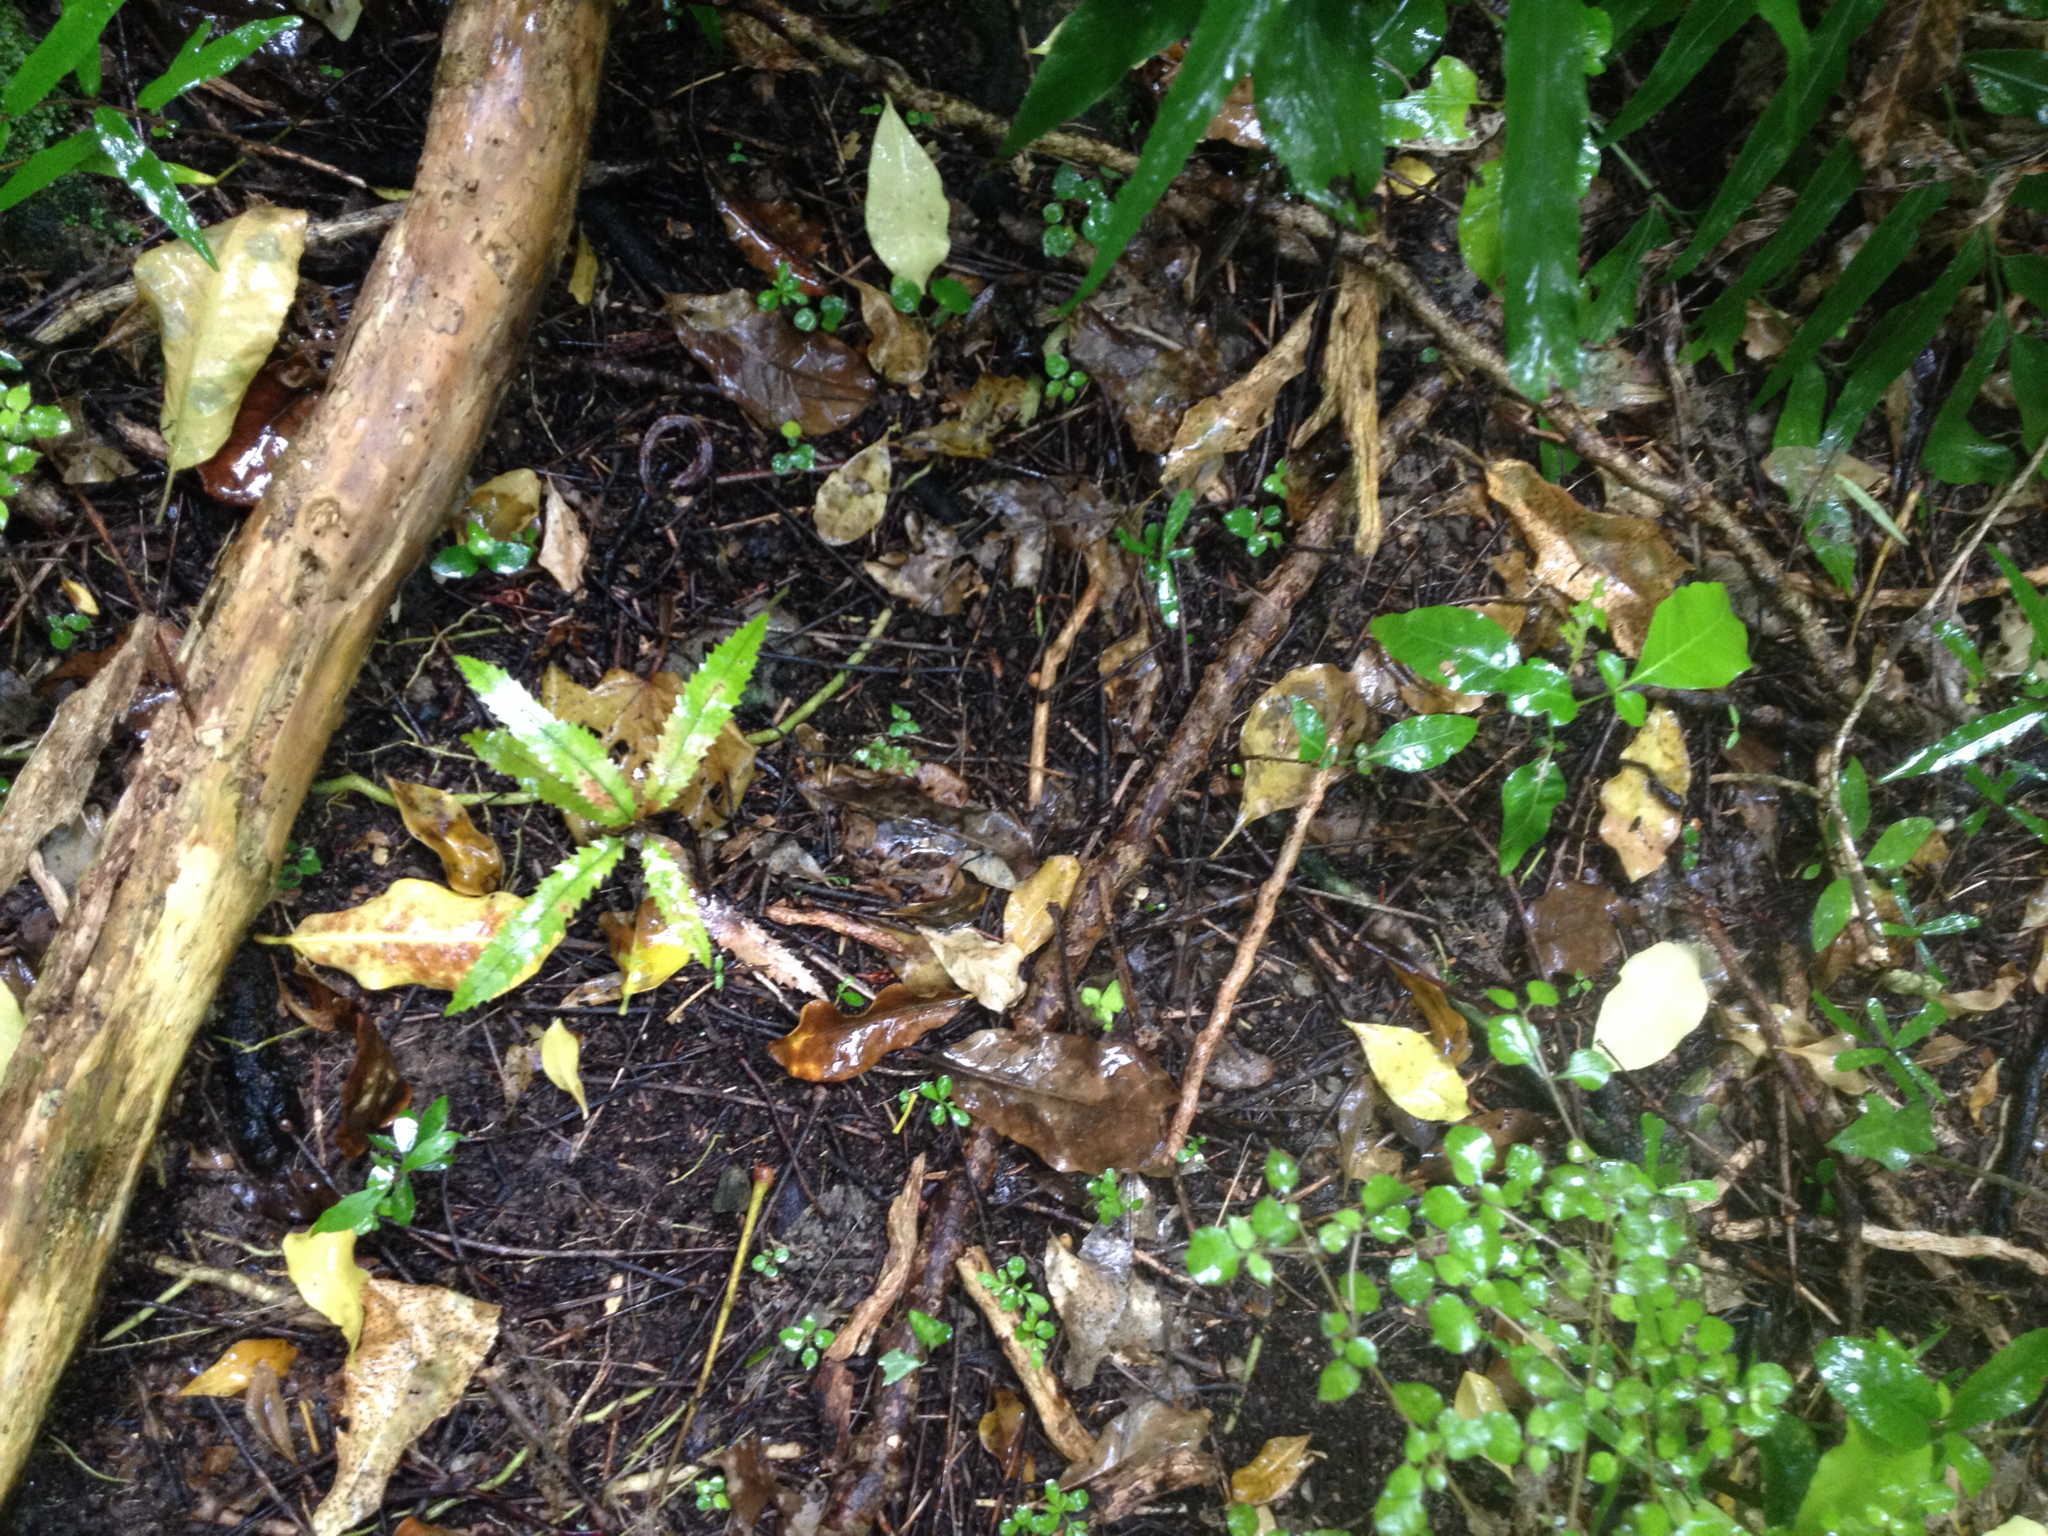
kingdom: Plantae
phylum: Tracheophyta
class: Magnoliopsida
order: Proteales
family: Proteaceae
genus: Knightia
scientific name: Knightia excelsa
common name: New zealand-honeysuckle
